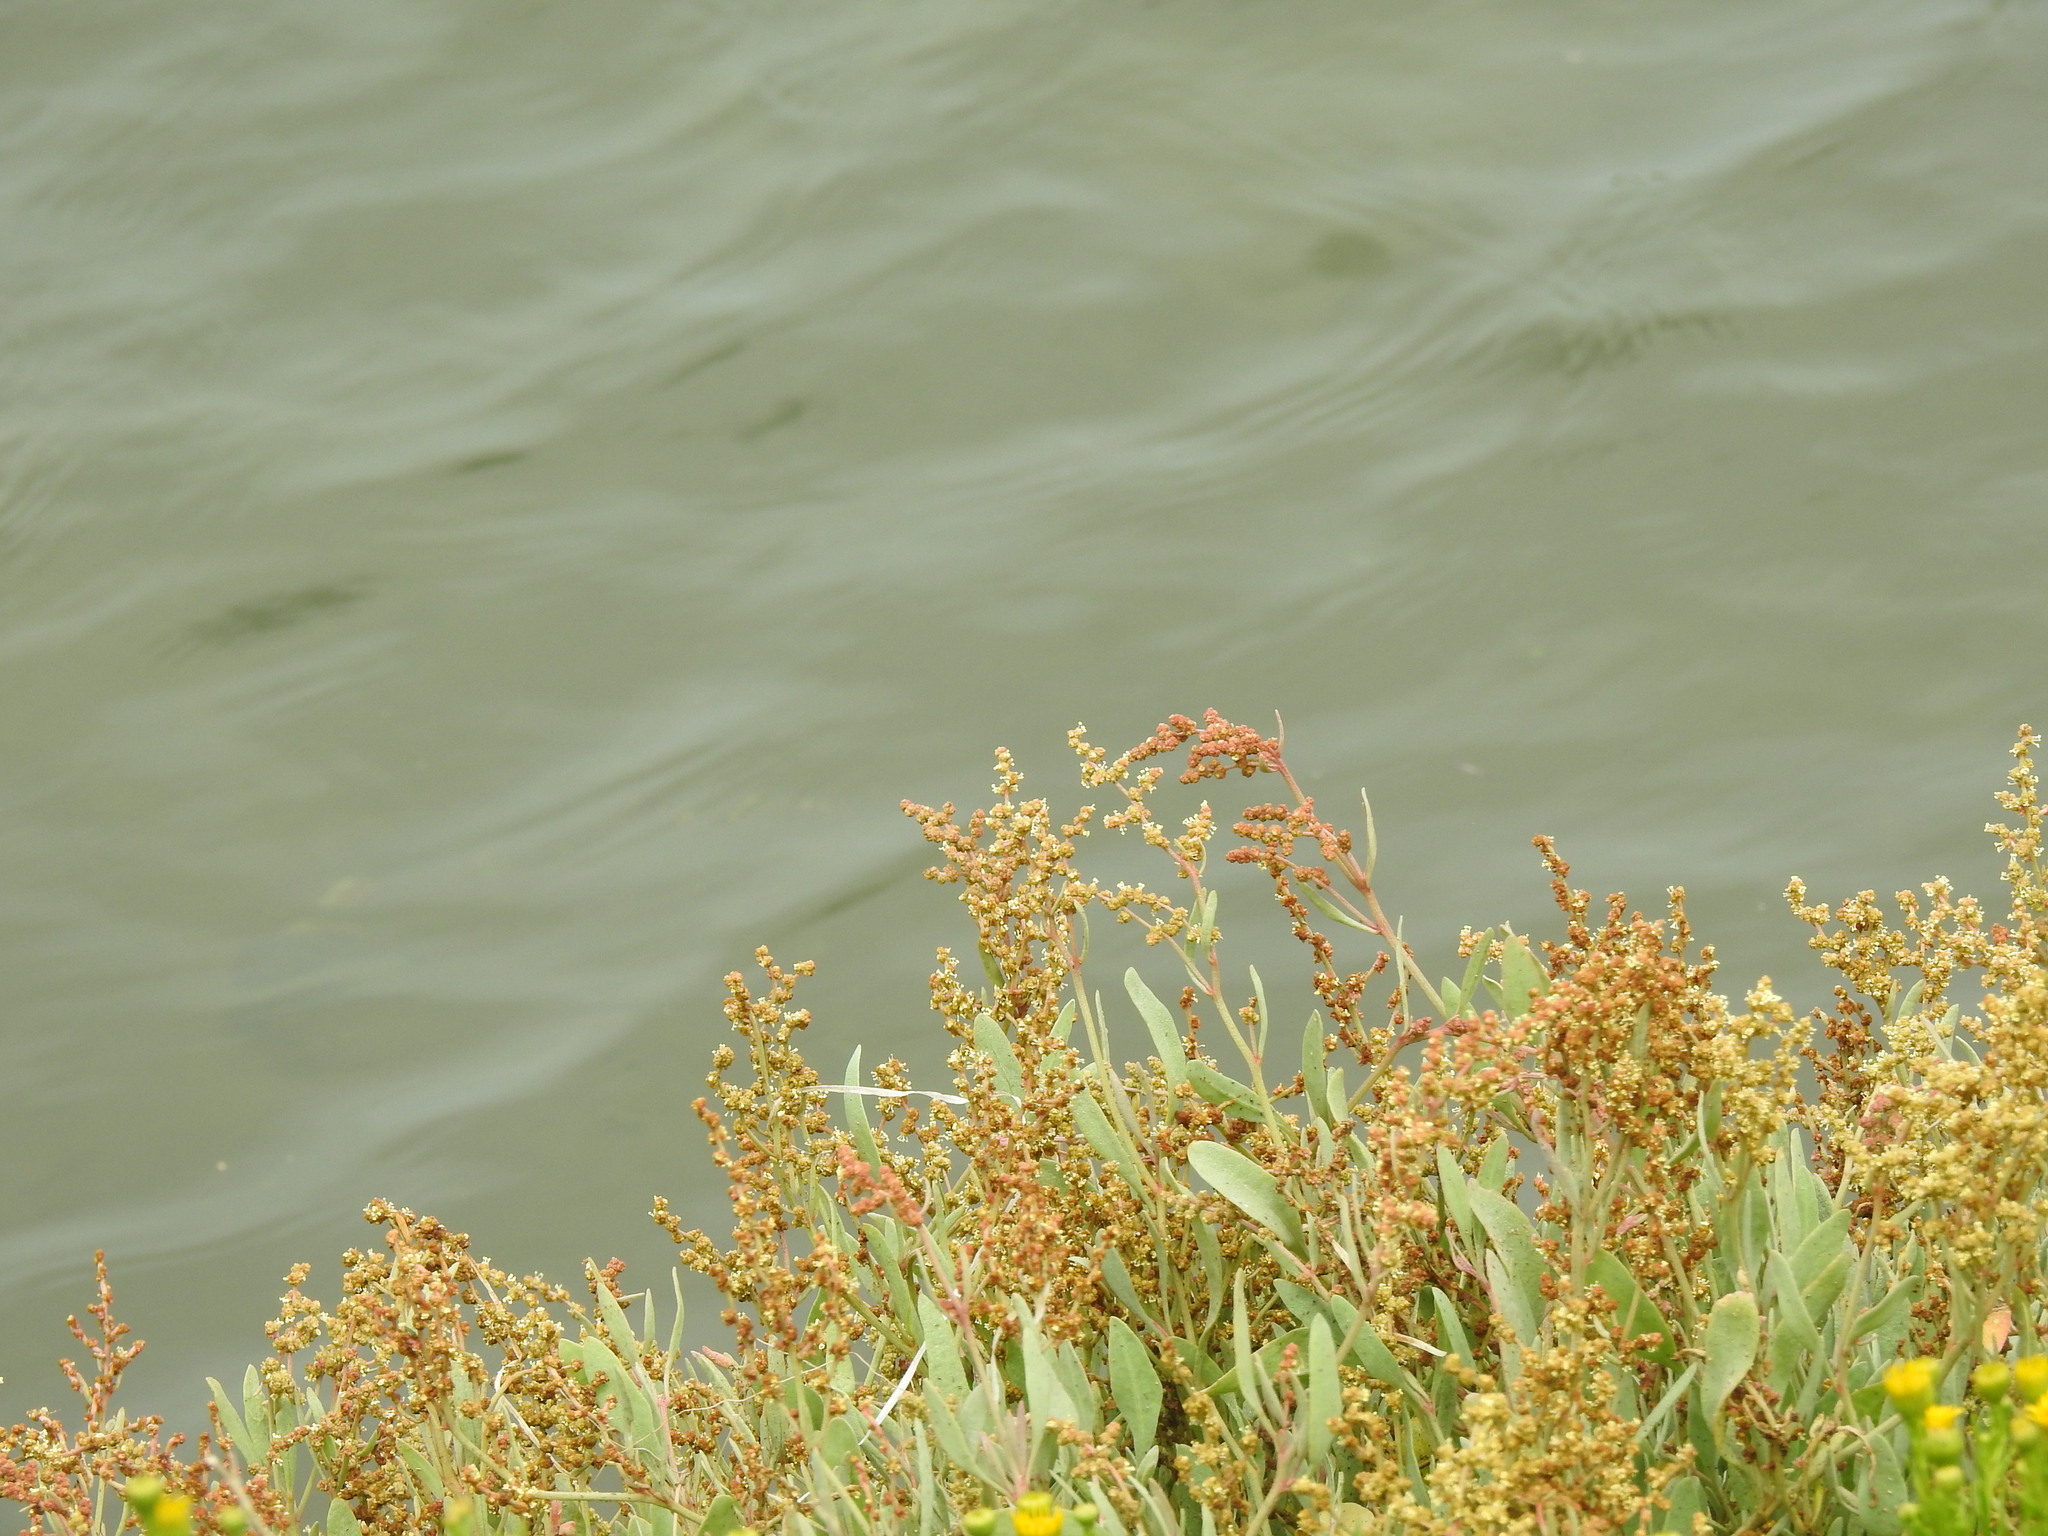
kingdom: Plantae
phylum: Tracheophyta
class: Magnoliopsida
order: Caryophyllales
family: Amaranthaceae
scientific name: Amaranthaceae
